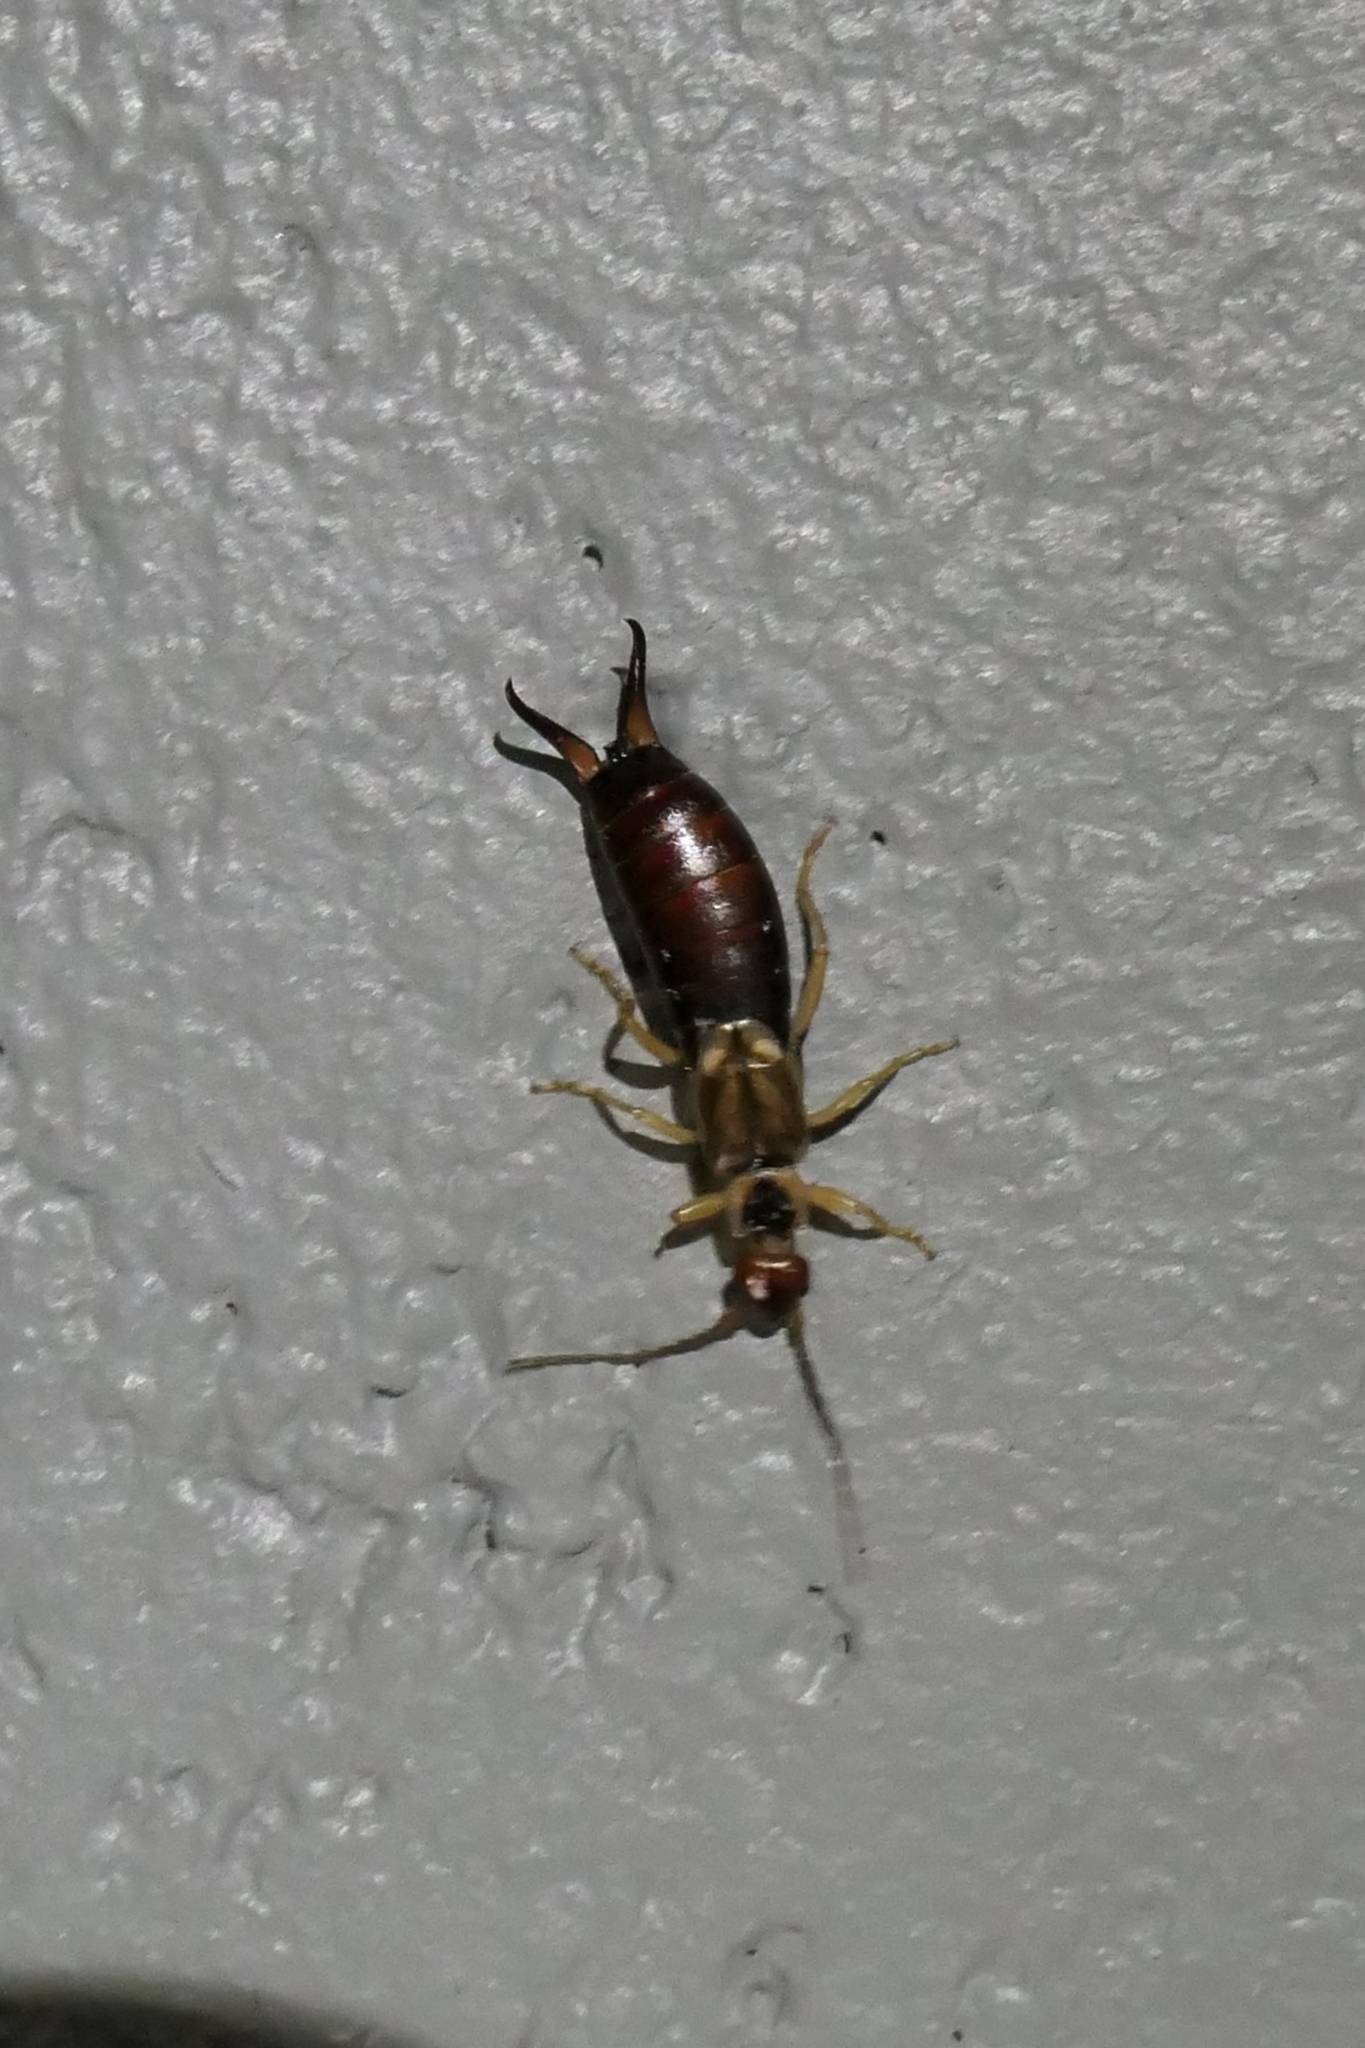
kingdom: Animalia
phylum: Arthropoda
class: Insecta
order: Dermaptera
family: Forficulidae
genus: Forficula
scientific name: Forficula
